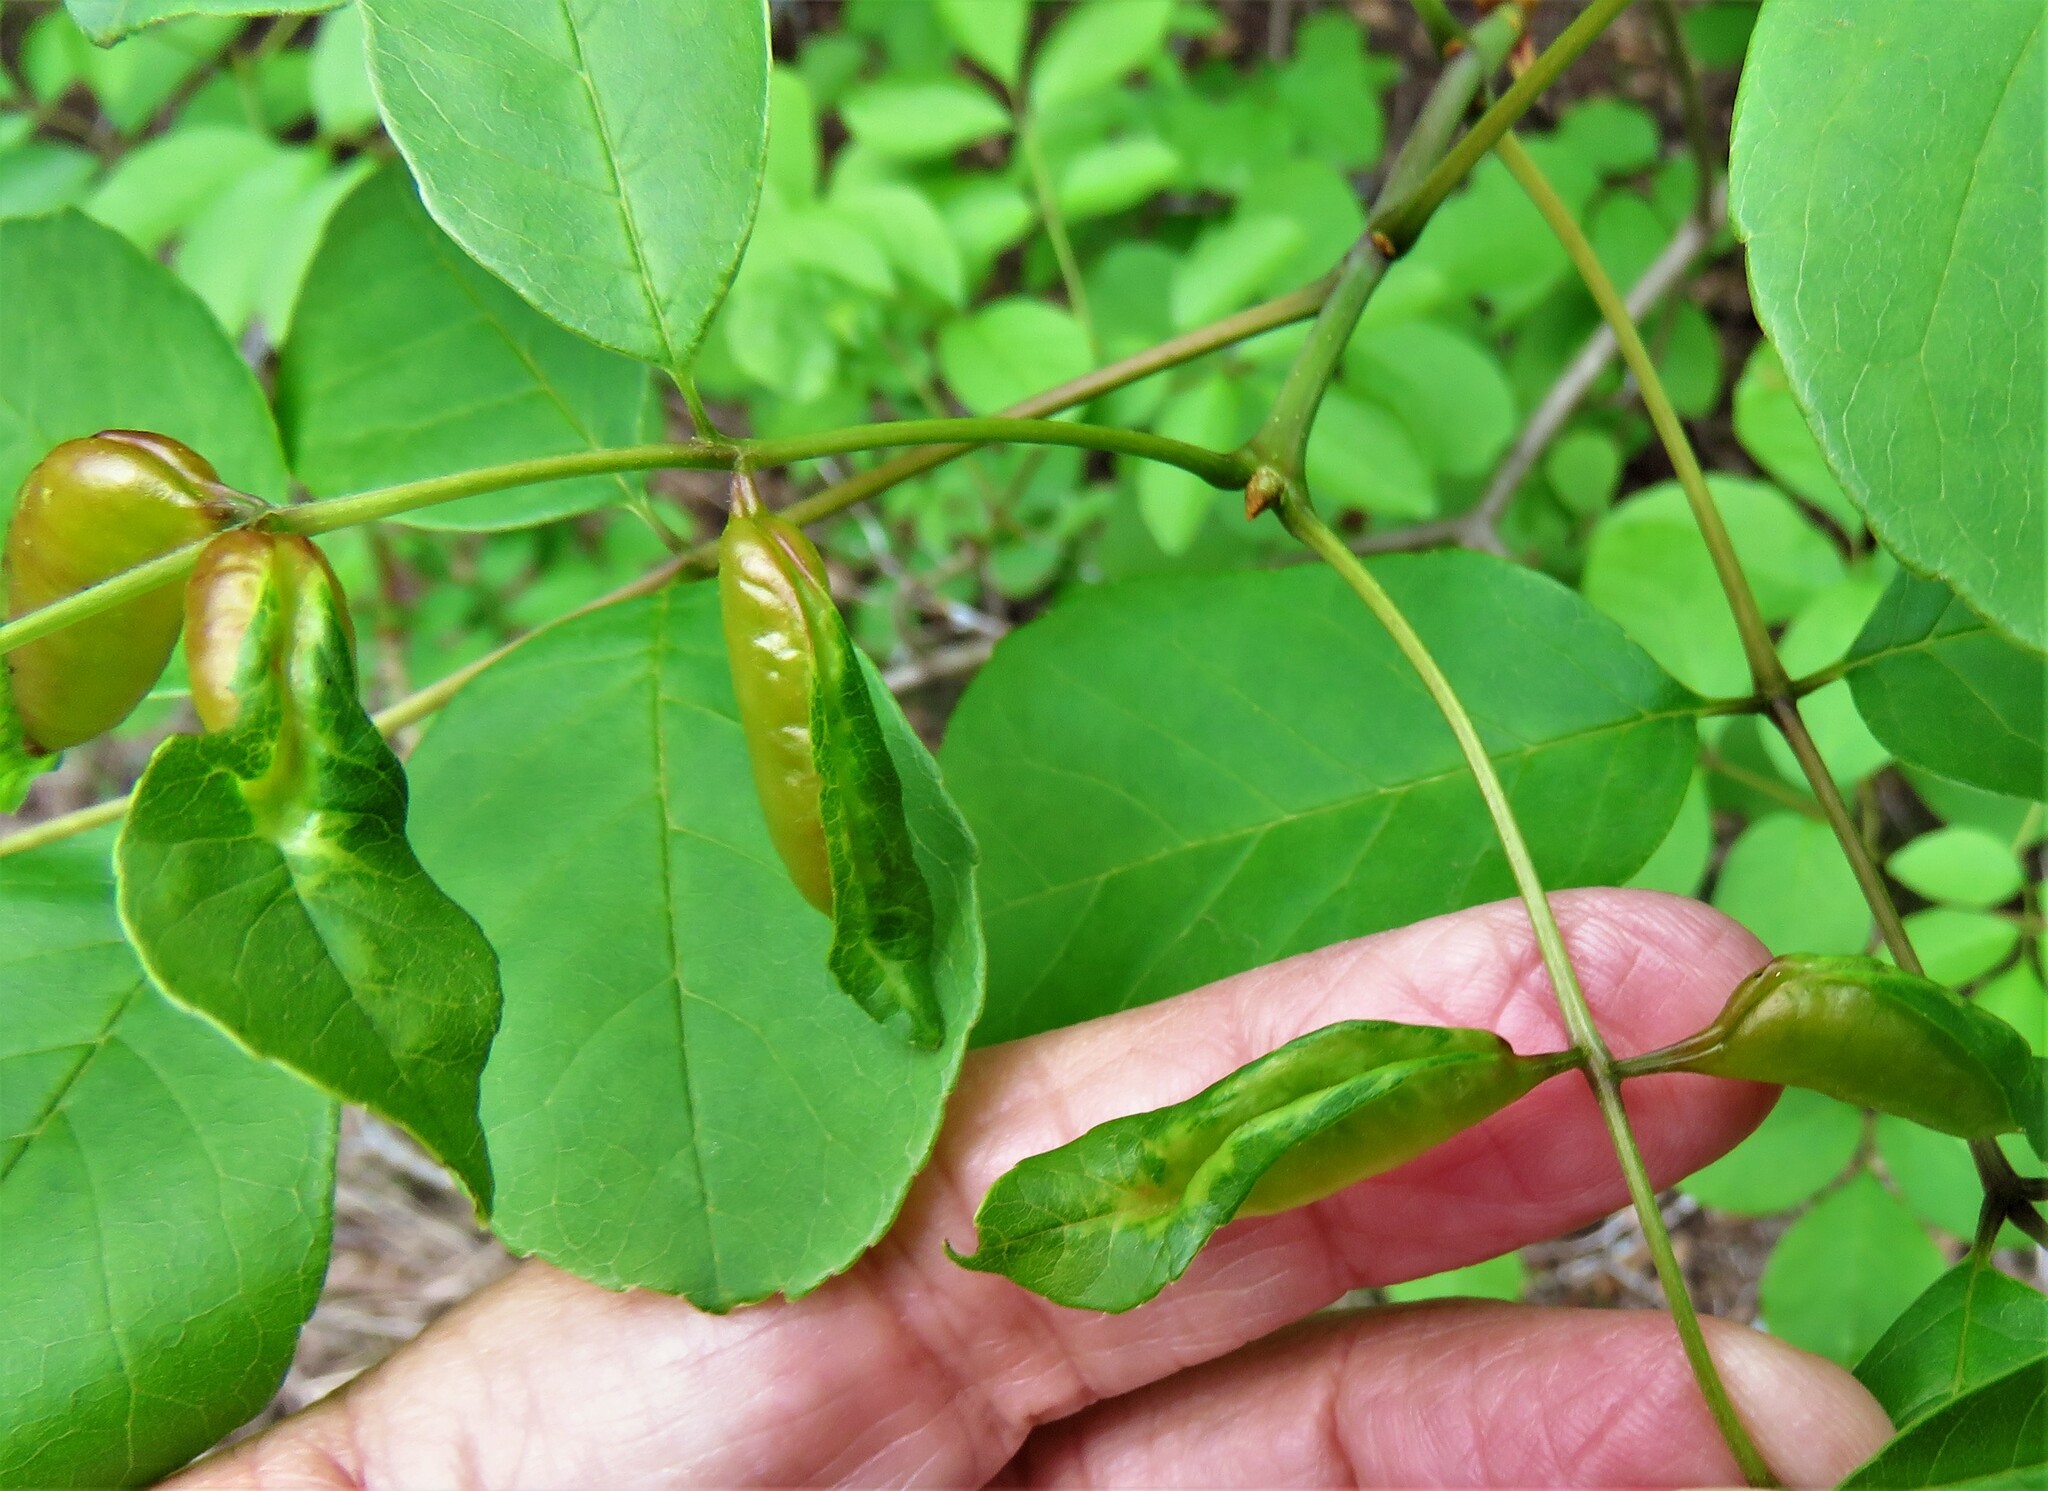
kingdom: Animalia
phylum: Arthropoda
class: Insecta
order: Diptera
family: Cecidomyiidae
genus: Dasineura
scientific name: Dasineura tumidosae
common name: Ash petiole gall midge
